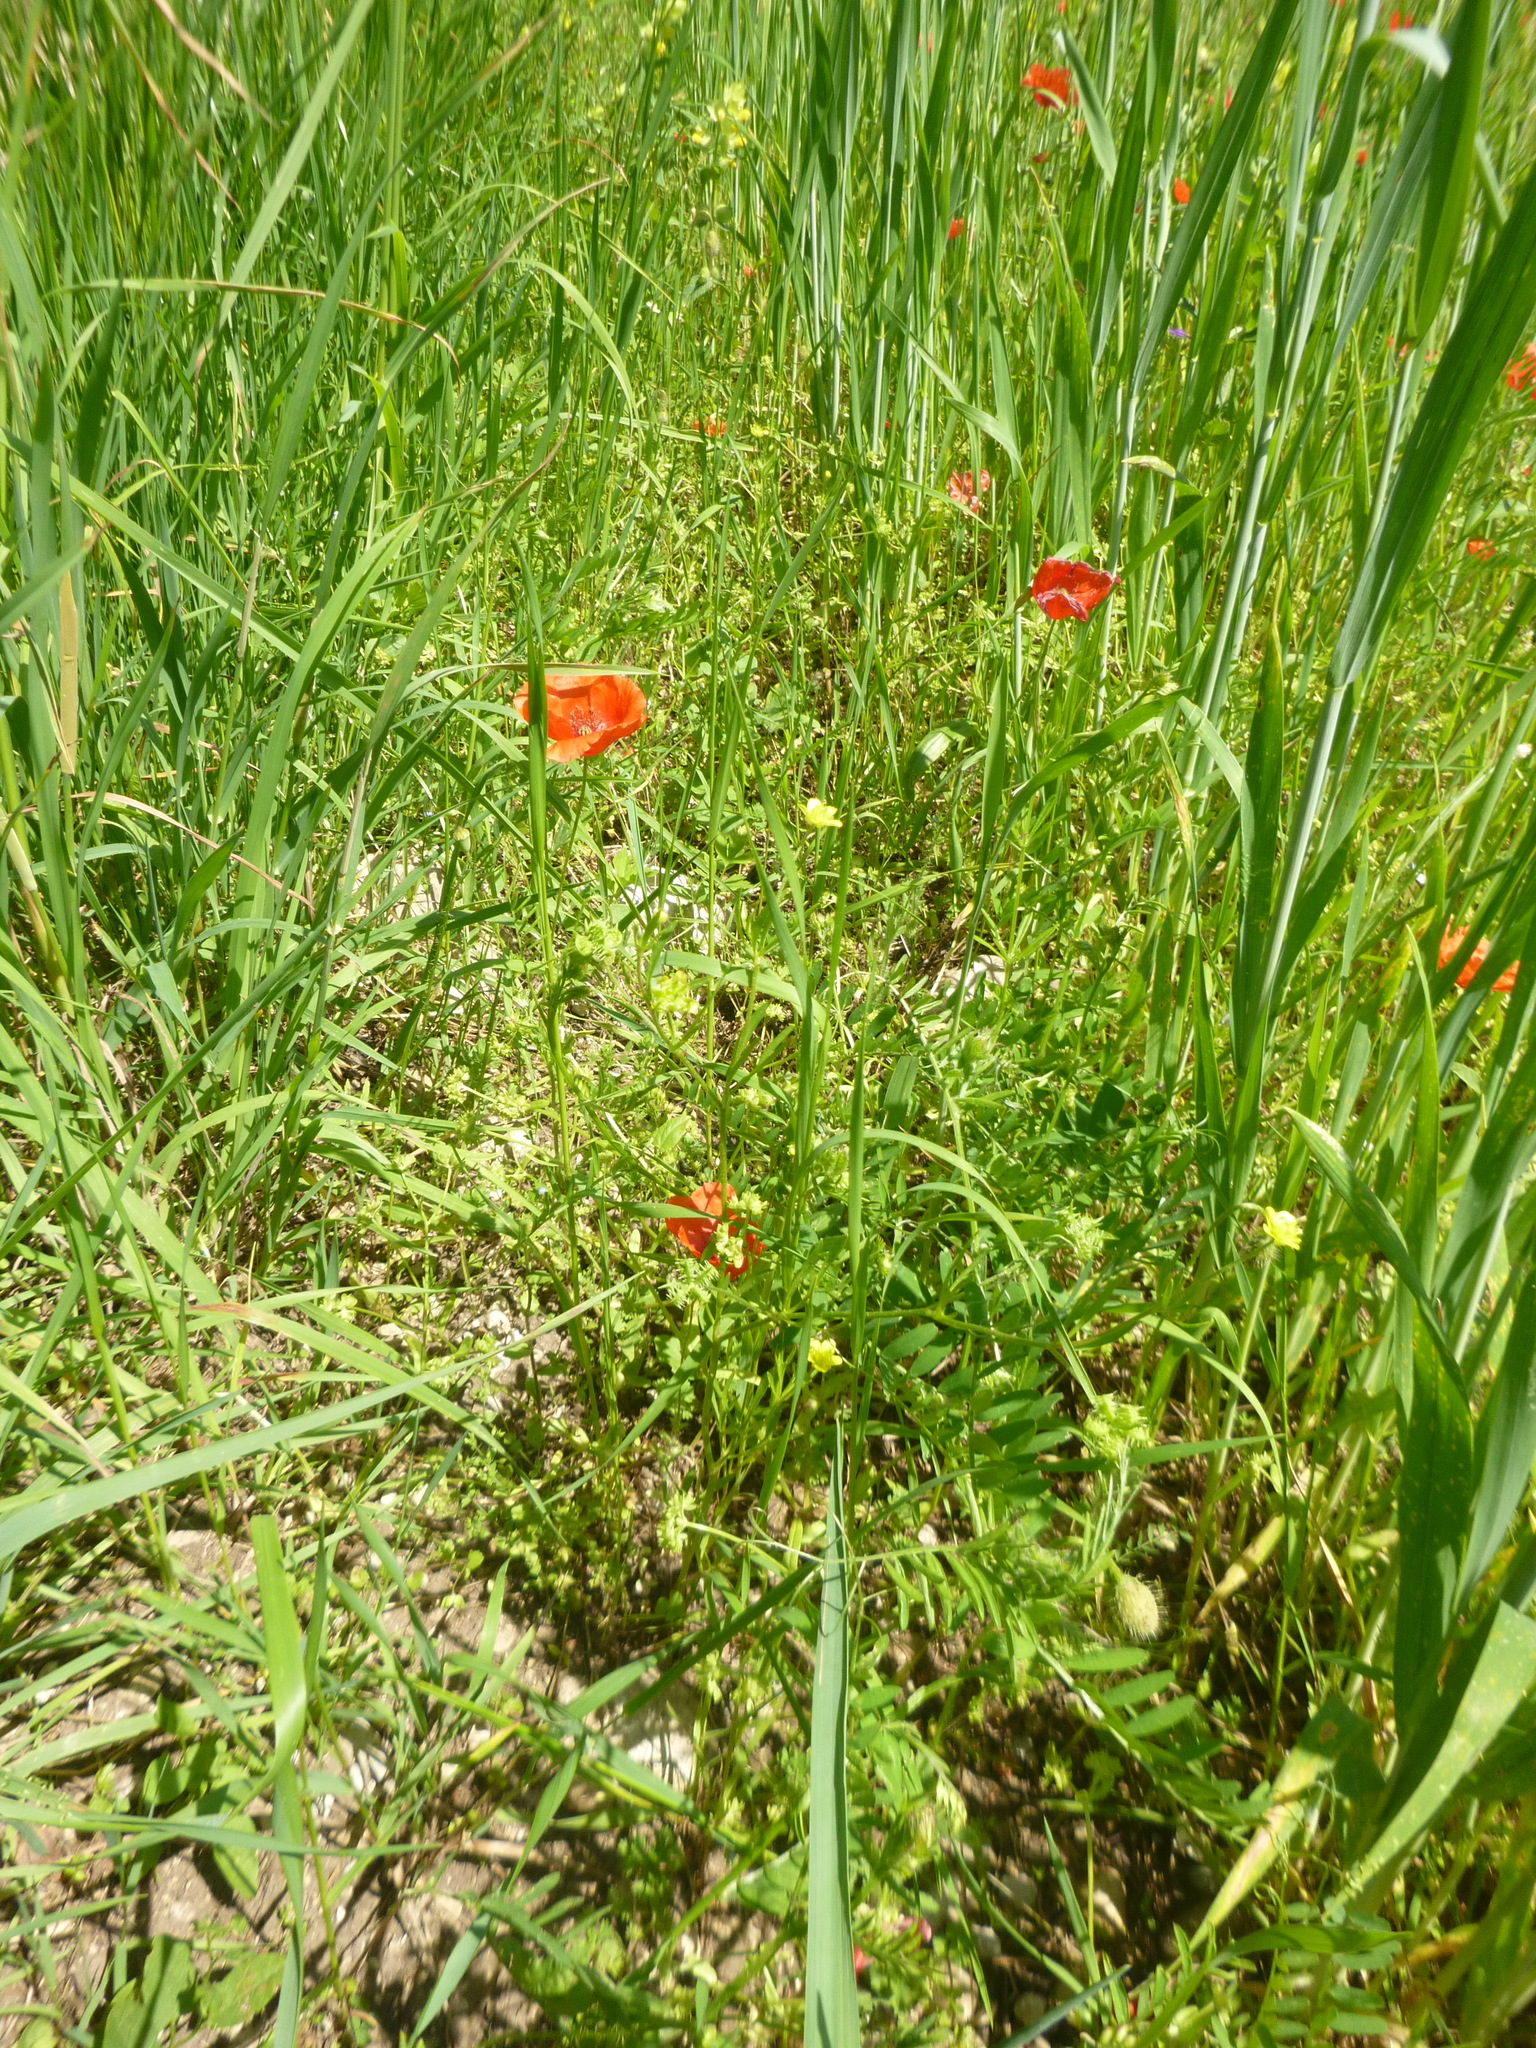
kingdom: Plantae
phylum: Tracheophyta
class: Magnoliopsida
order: Ranunculales
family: Ranunculaceae
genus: Ranunculus
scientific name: Ranunculus arvensis
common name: Corn buttercup
